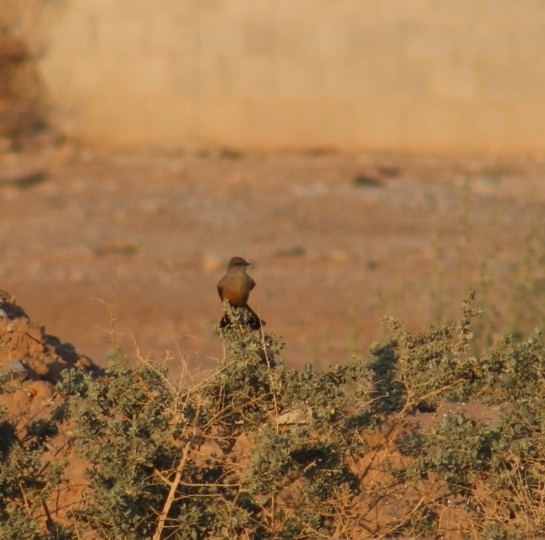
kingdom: Animalia
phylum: Chordata
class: Aves
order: Passeriformes
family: Tyrannidae
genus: Sayornis
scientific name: Sayornis saya
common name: Say's phoebe
